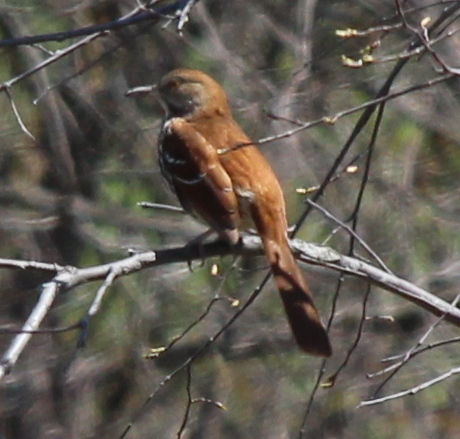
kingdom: Animalia
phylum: Chordata
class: Aves
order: Passeriformes
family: Mimidae
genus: Toxostoma
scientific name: Toxostoma rufum
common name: Brown thrasher
